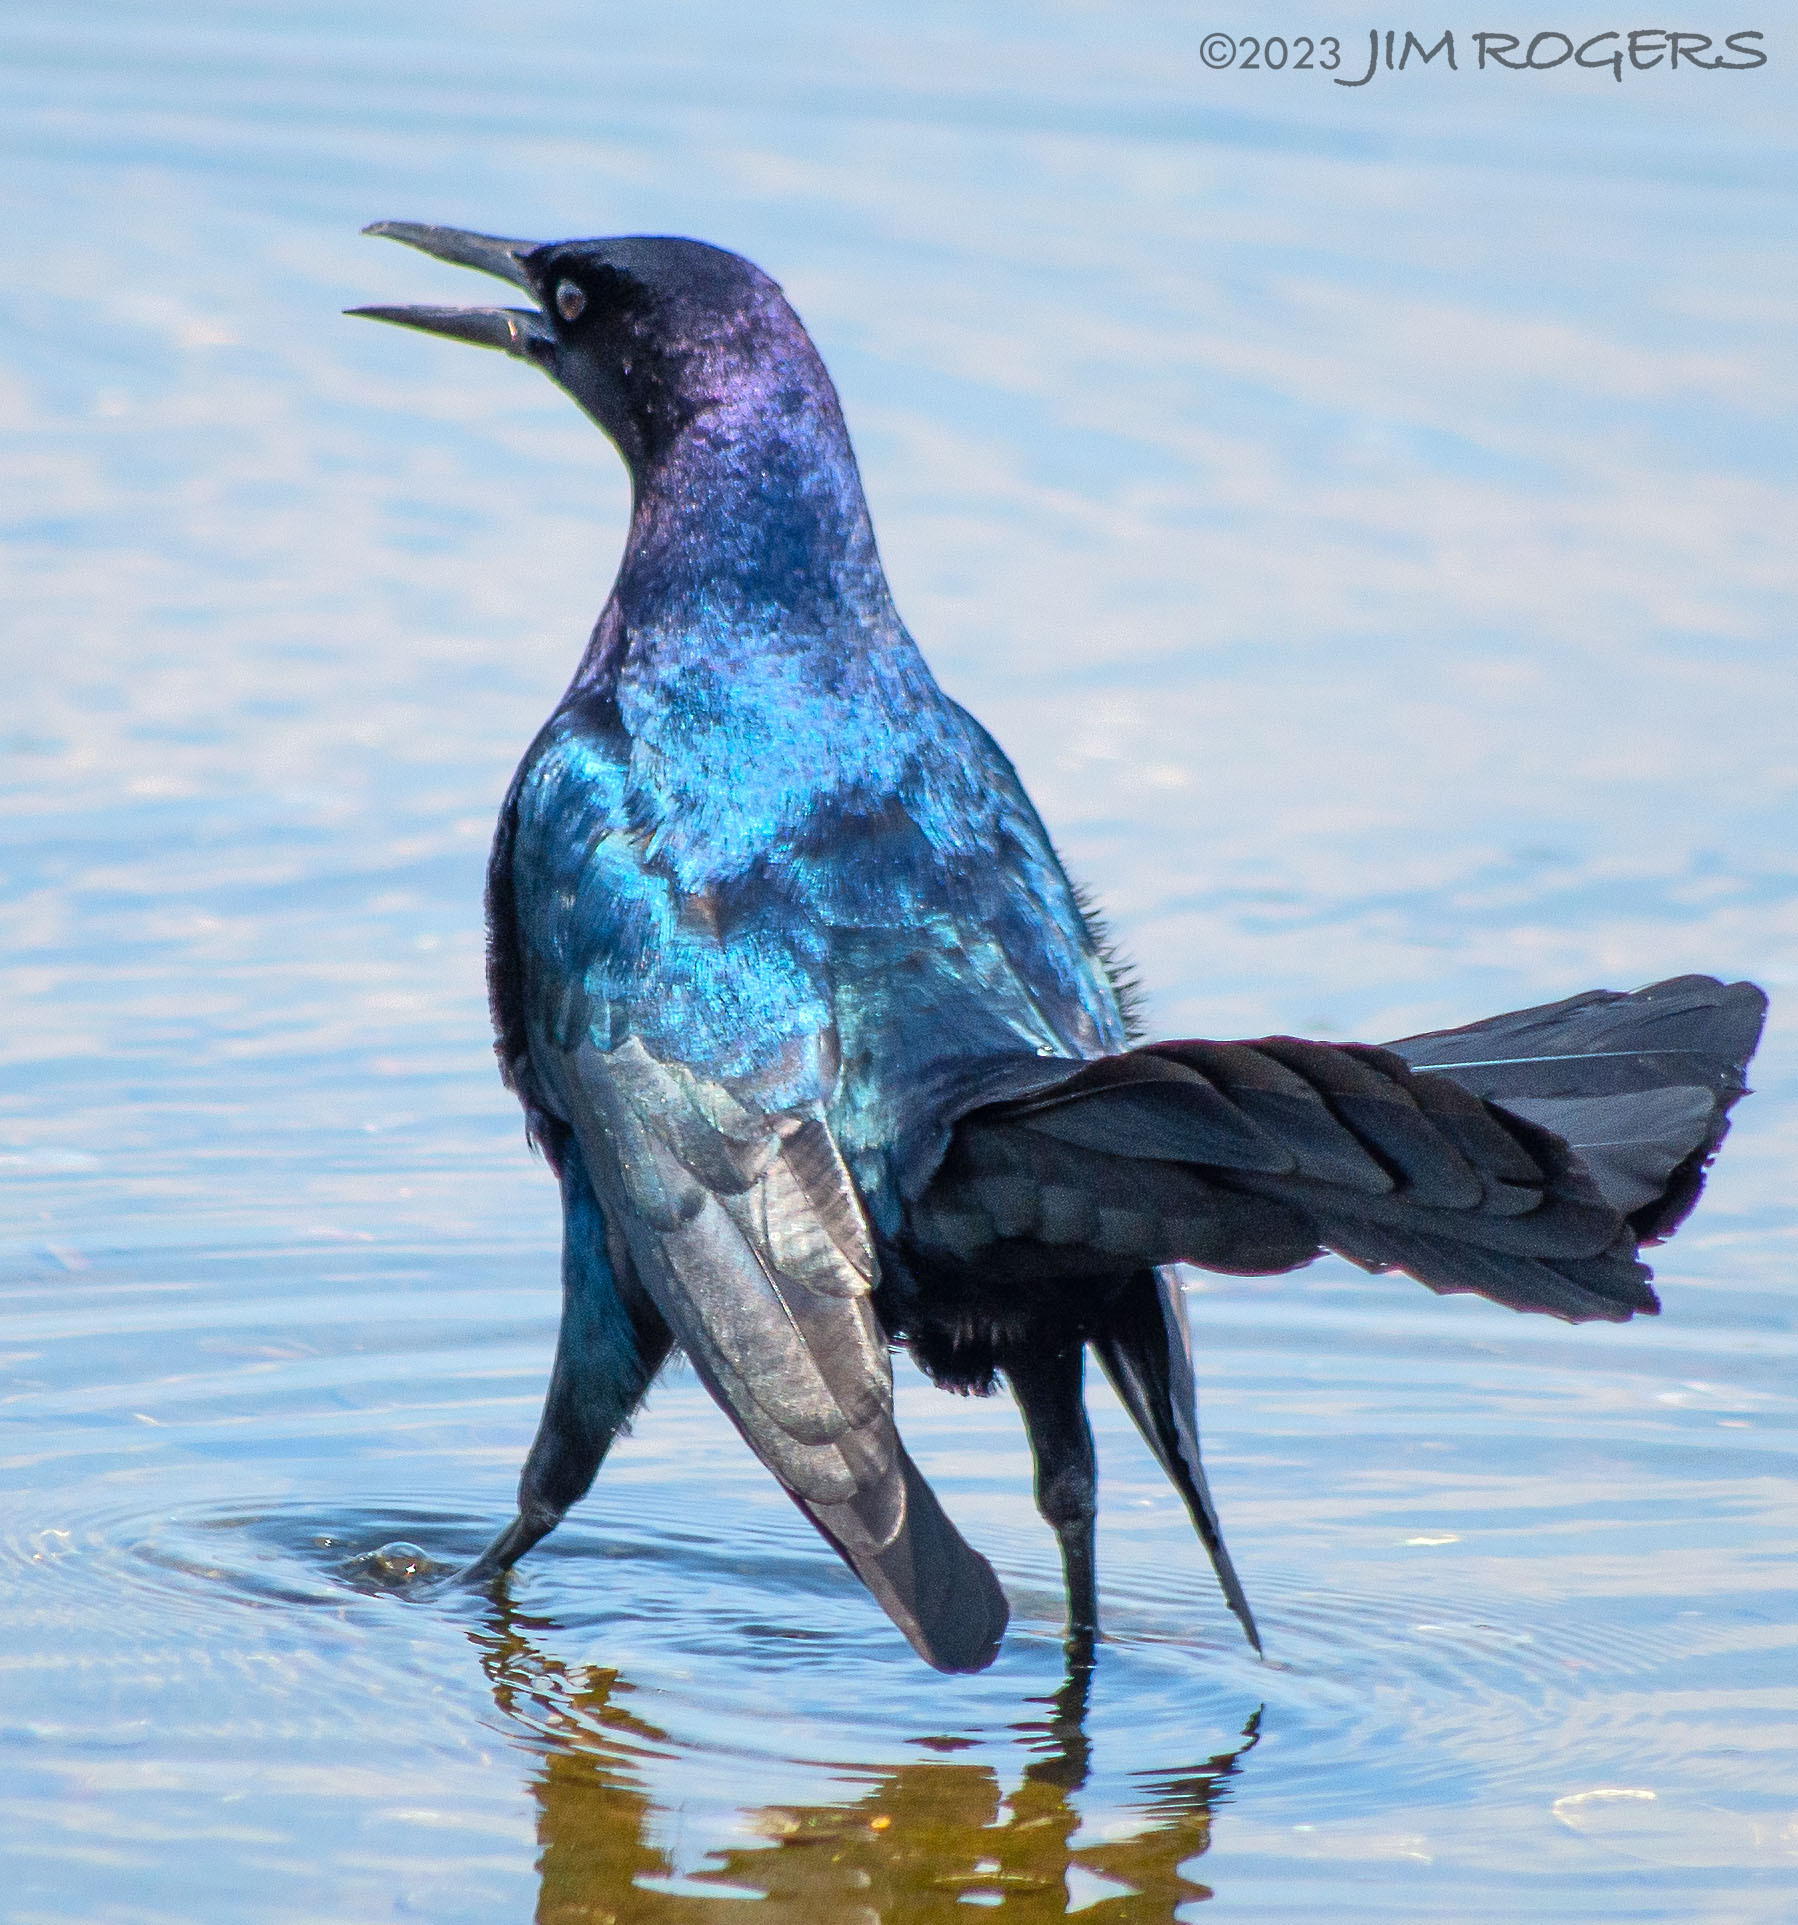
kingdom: Animalia
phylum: Chordata
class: Aves
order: Passeriformes
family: Icteridae
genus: Quiscalus
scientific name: Quiscalus major
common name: Boat-tailed grackle
